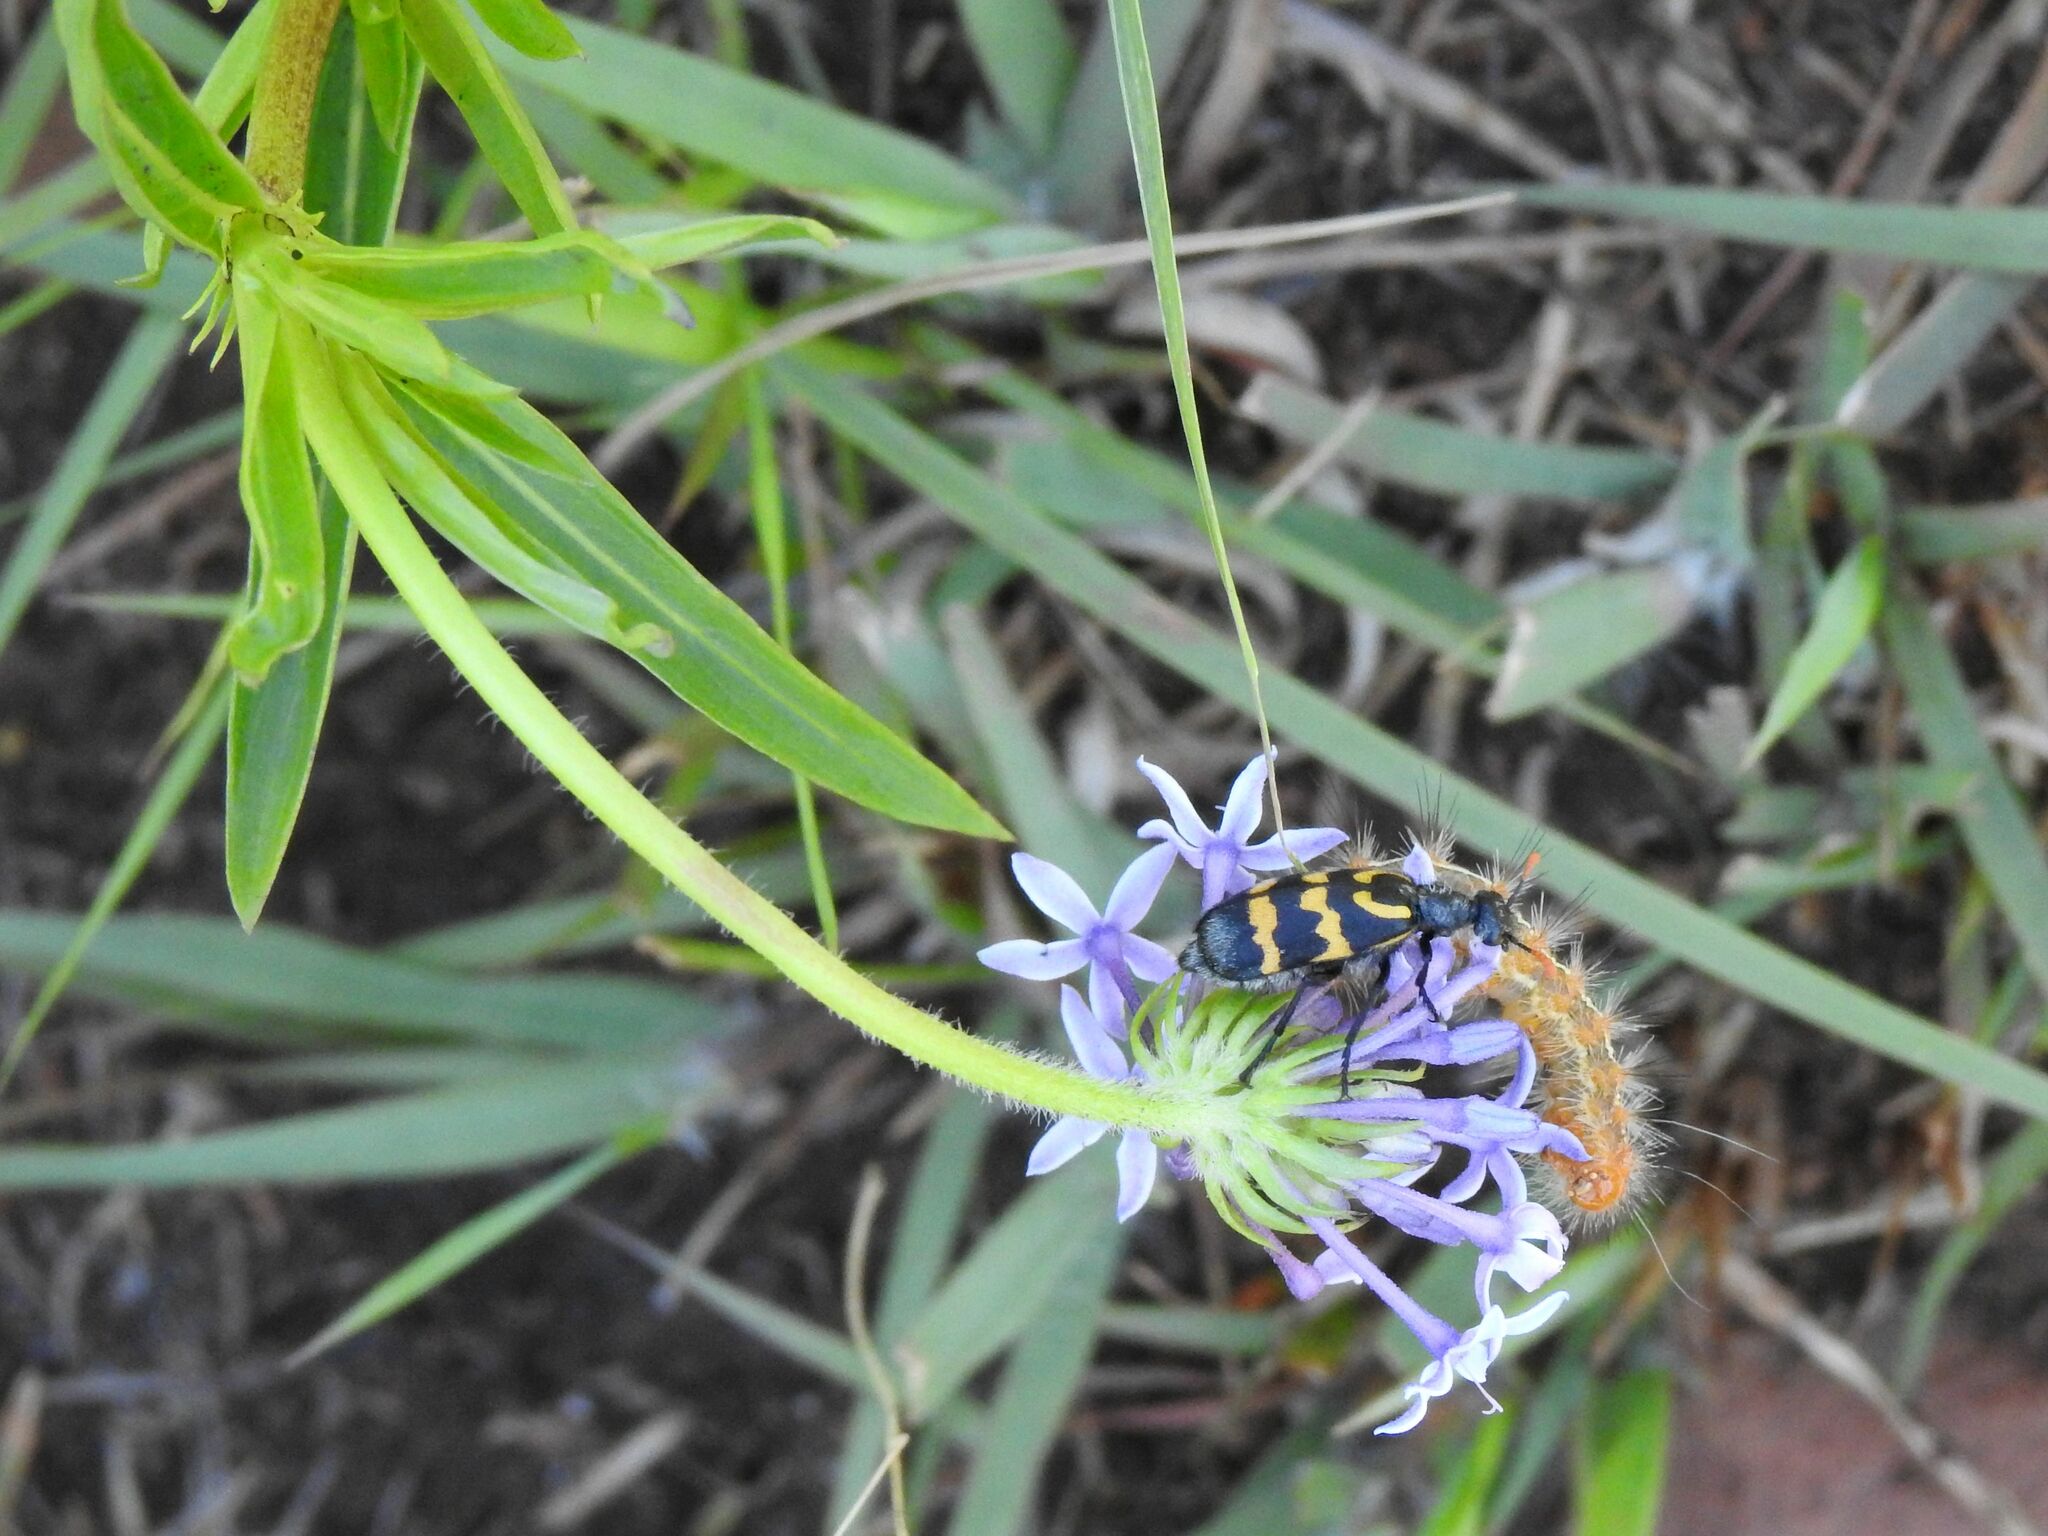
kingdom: Plantae
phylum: Tracheophyta
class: Magnoliopsida
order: Gentianales
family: Rubiaceae
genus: Pentanisia
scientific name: Pentanisia angustifolia
